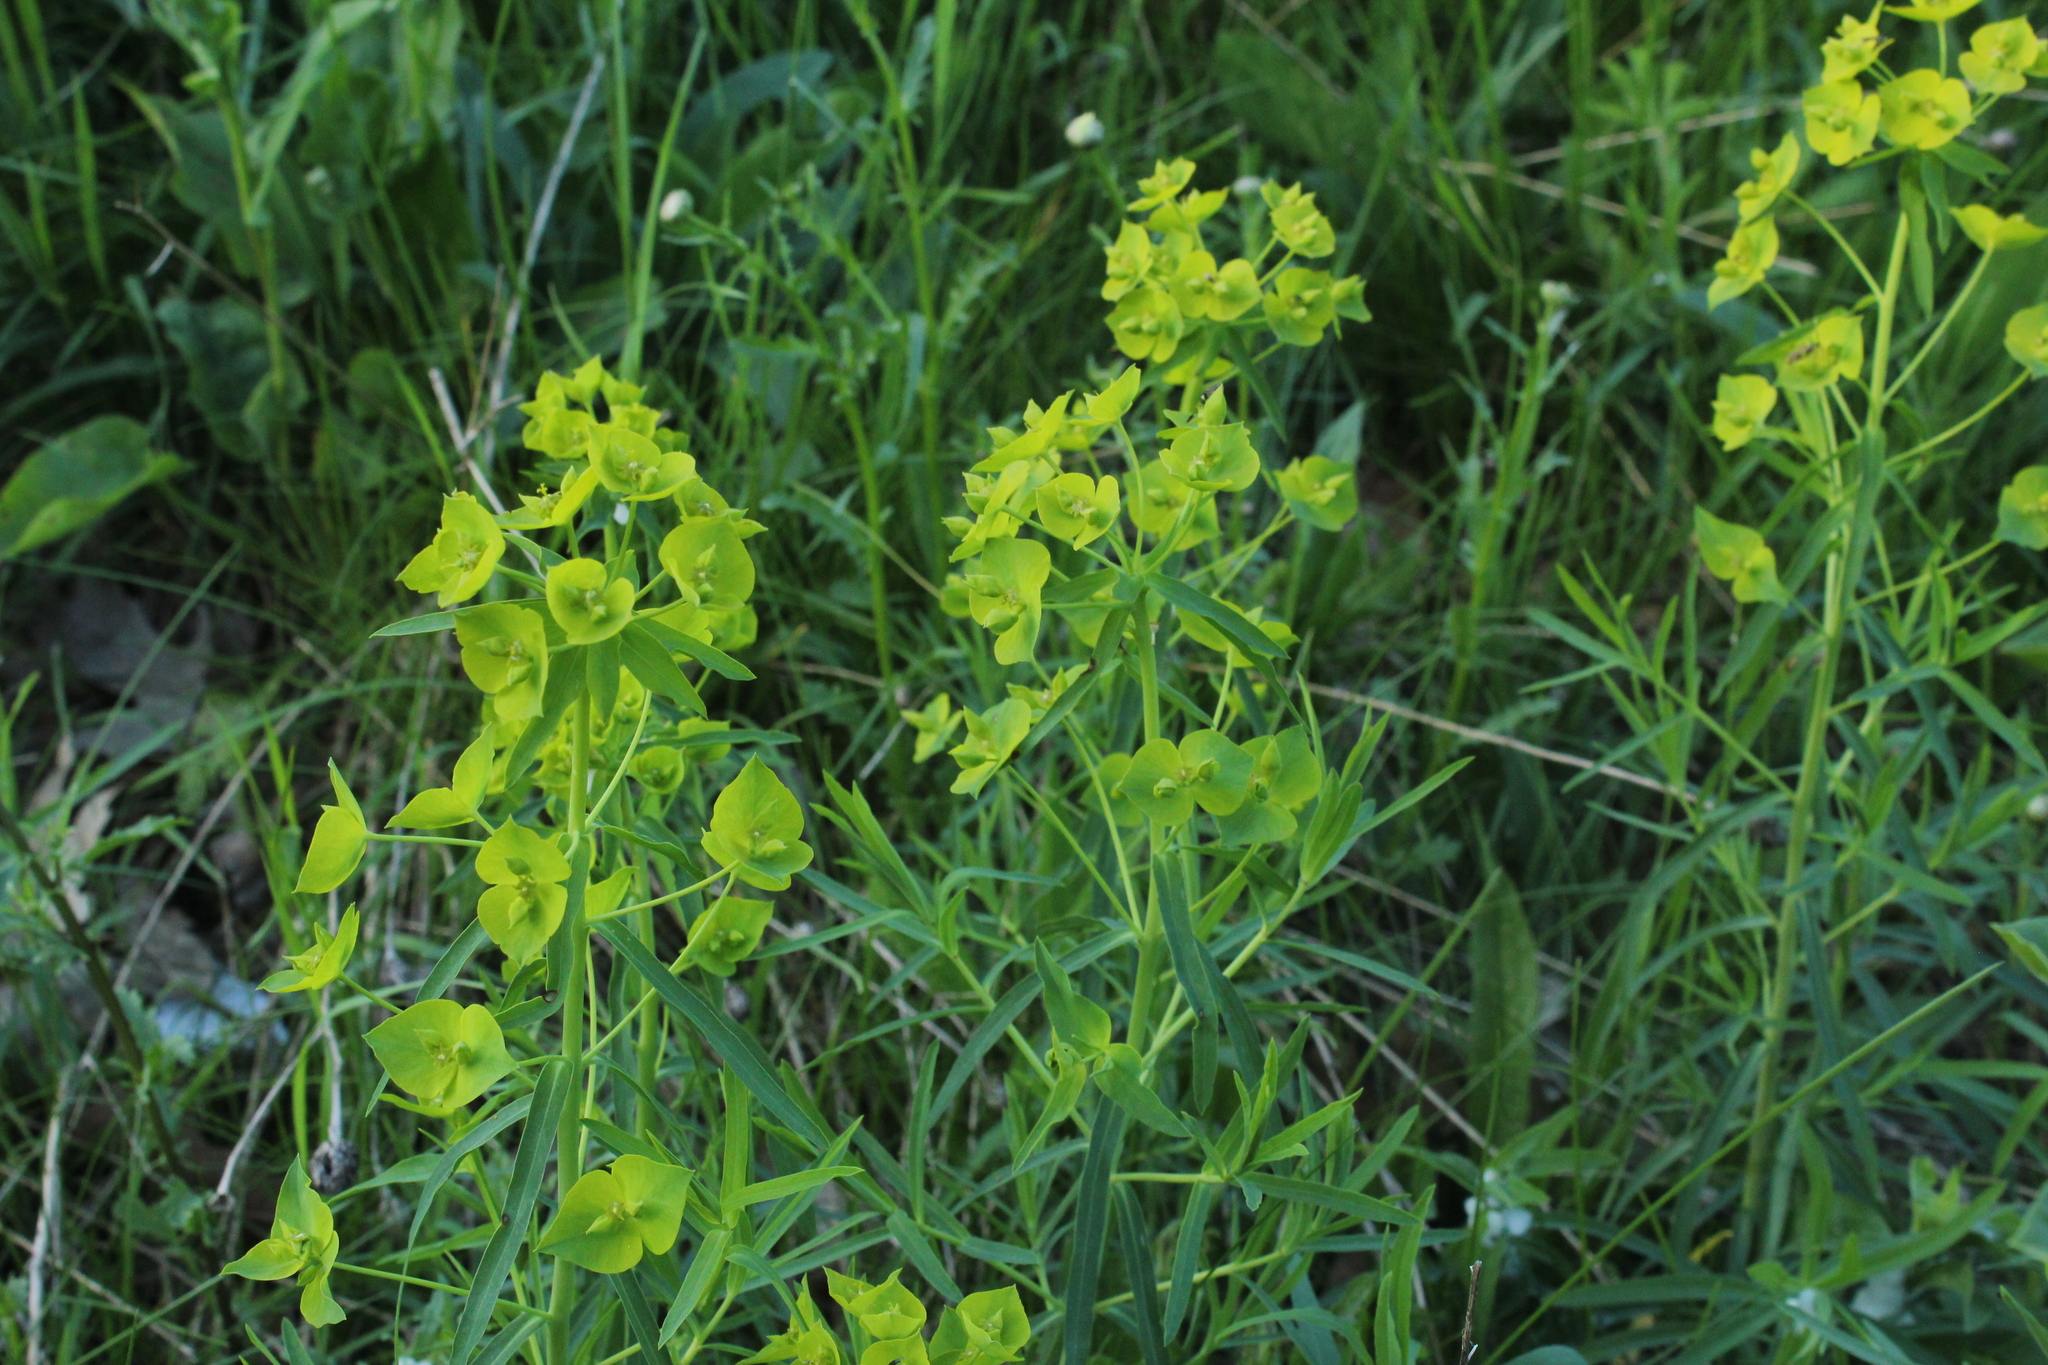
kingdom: Plantae
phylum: Tracheophyta
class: Magnoliopsida
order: Malpighiales
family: Euphorbiaceae
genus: Euphorbia
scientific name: Euphorbia virgata
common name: Leafy spurge
